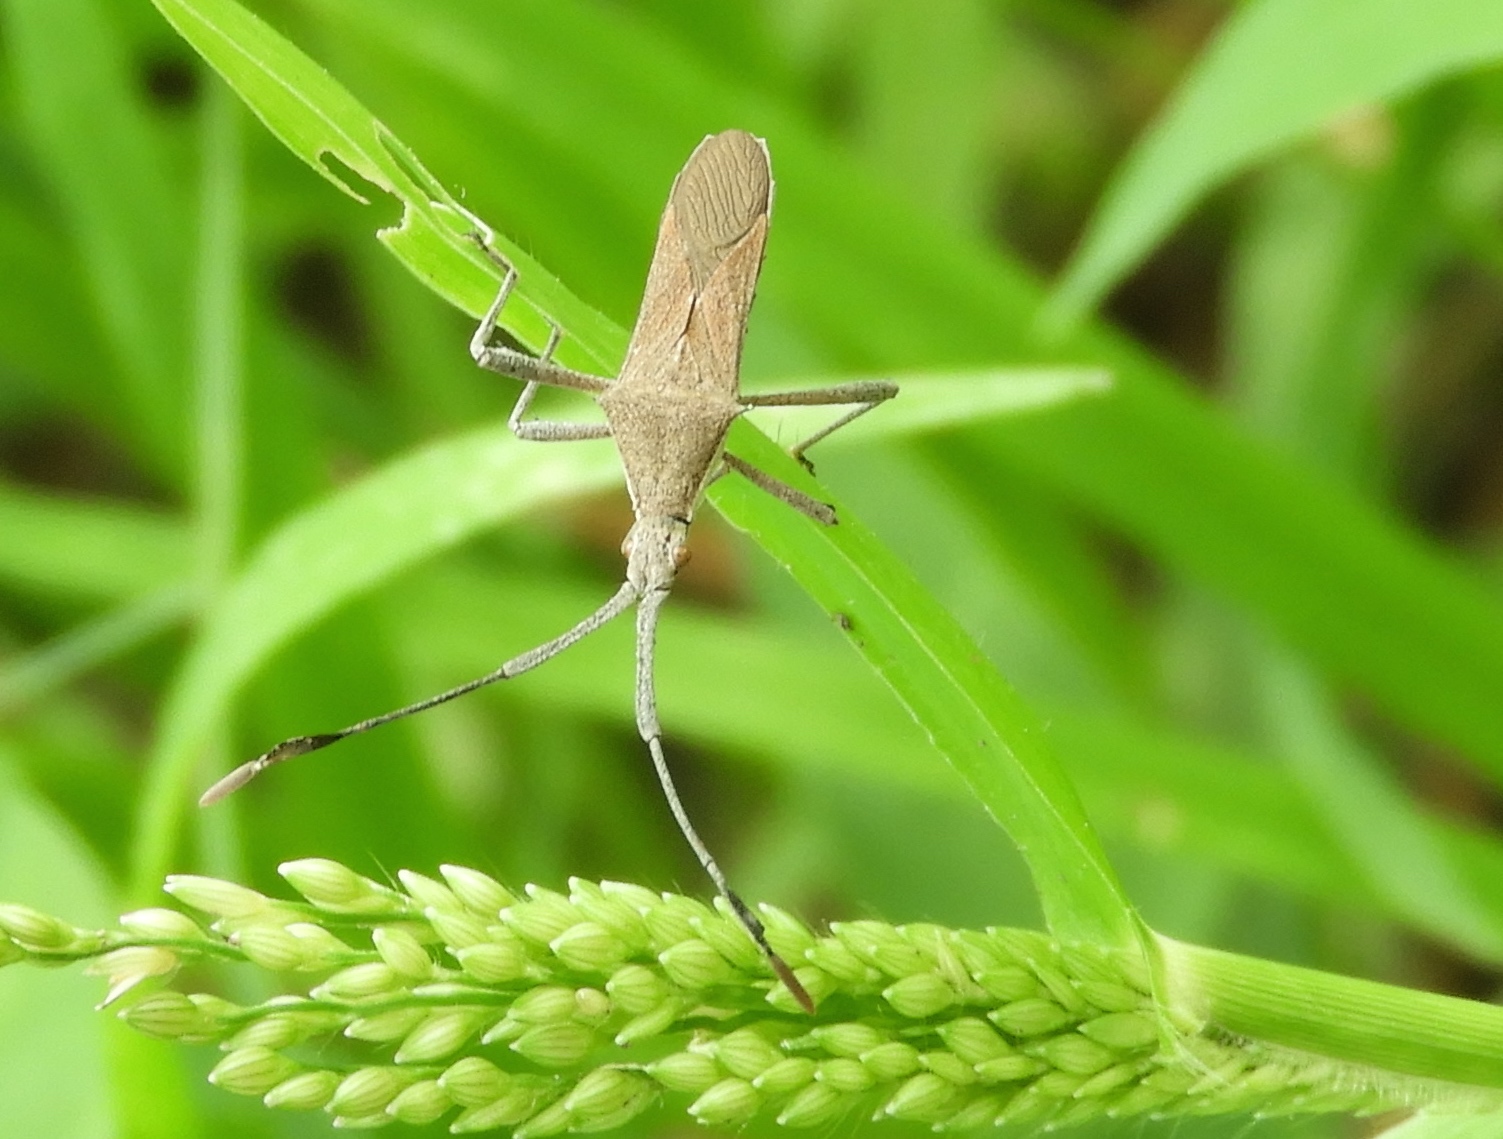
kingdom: Animalia
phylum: Arthropoda
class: Insecta
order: Hemiptera
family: Coreidae
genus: Chariesterus
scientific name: Chariesterus
